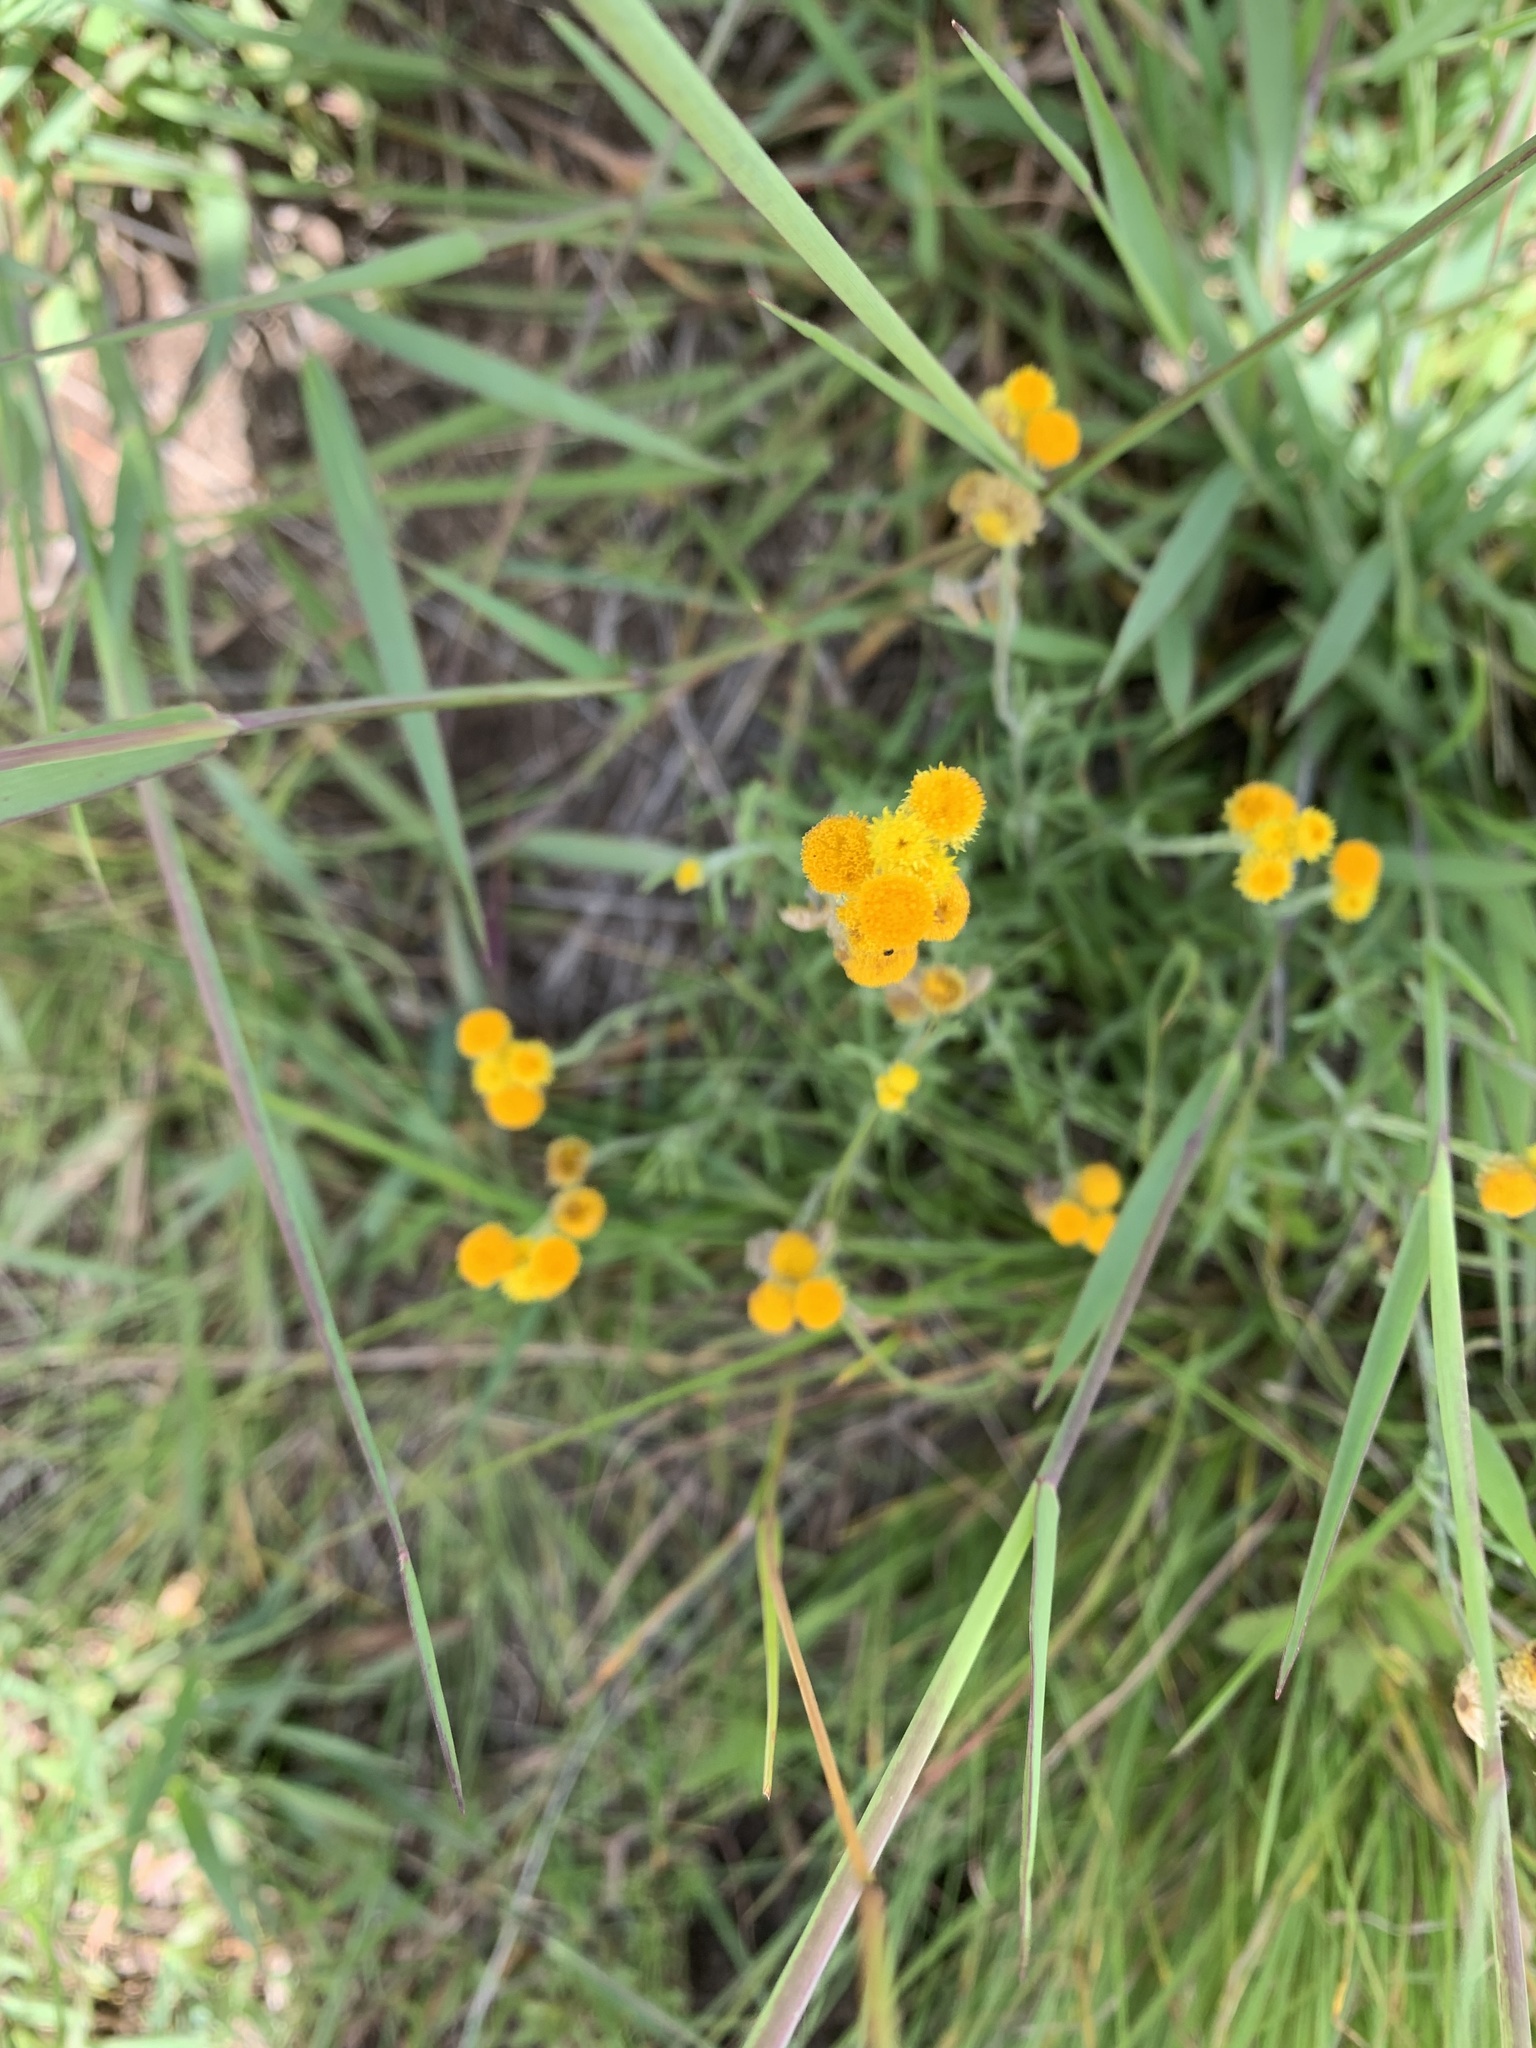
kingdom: Plantae
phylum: Tracheophyta
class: Magnoliopsida
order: Asterales
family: Asteraceae
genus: Chrysocephalum
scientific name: Chrysocephalum apiculatum
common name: Common everlasting
